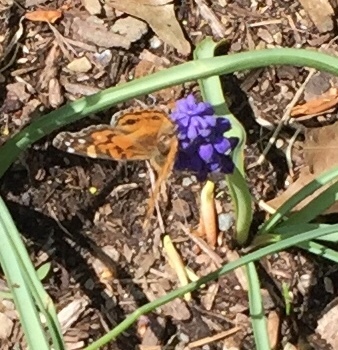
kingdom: Animalia
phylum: Arthropoda
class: Insecta
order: Lepidoptera
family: Nymphalidae
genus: Vanessa
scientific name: Vanessa virginiensis
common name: American lady
